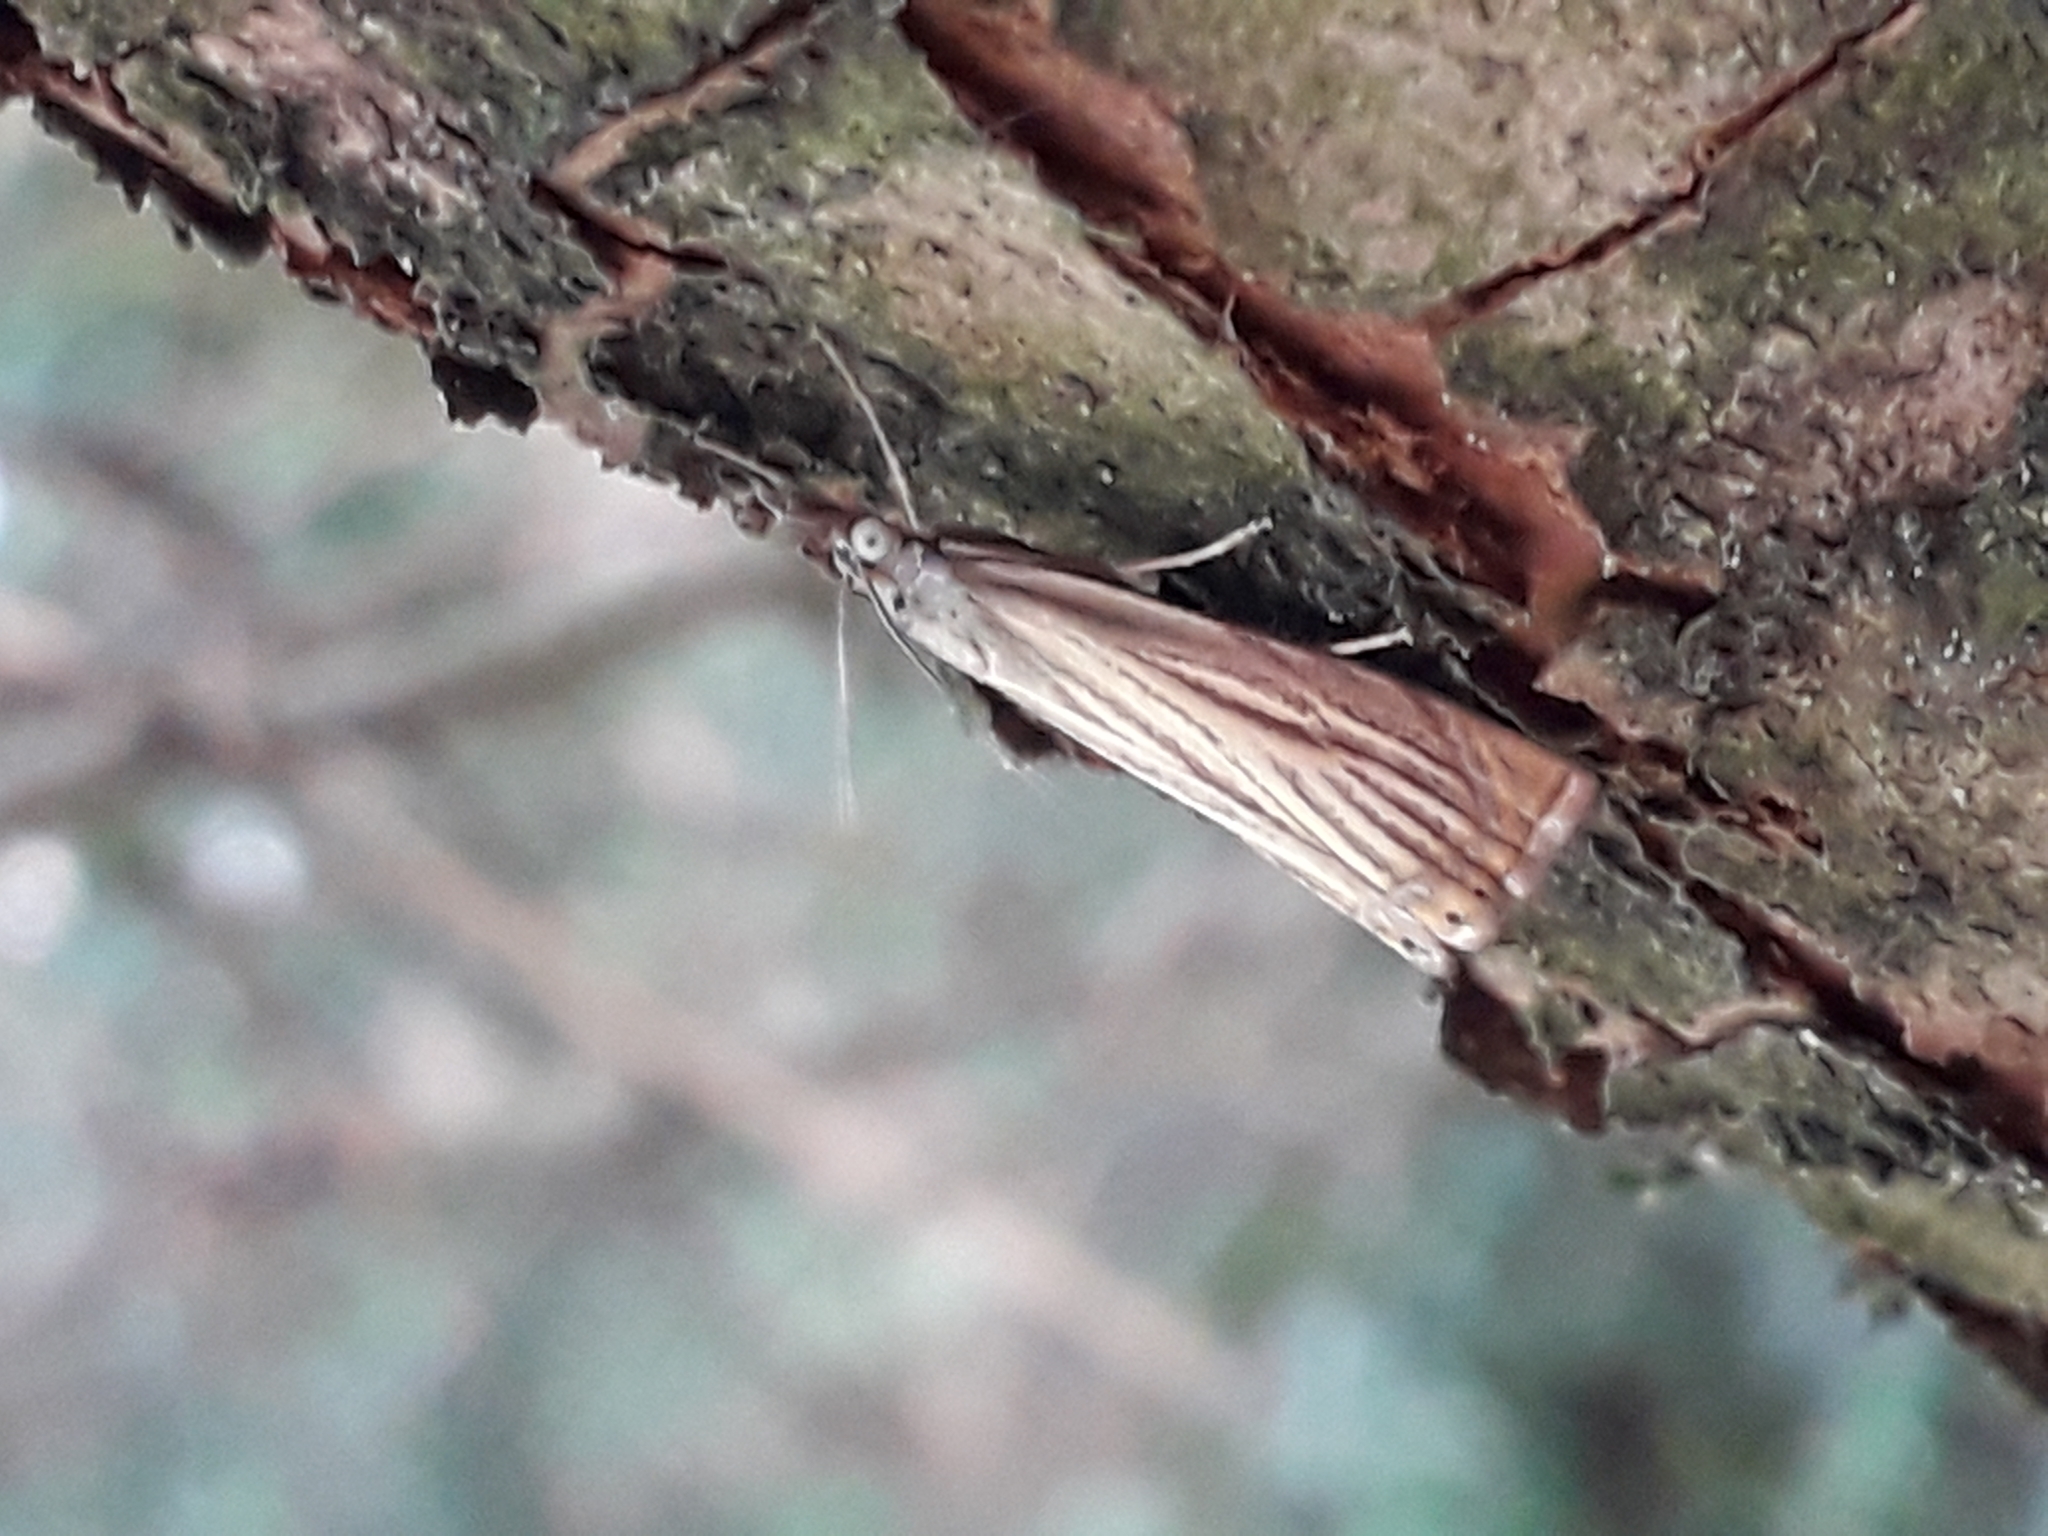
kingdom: Animalia
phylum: Arthropoda
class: Insecta
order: Lepidoptera
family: Crambidae
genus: Chrysoteuchia
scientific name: Chrysoteuchia culmella
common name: Garden grass-veneer
